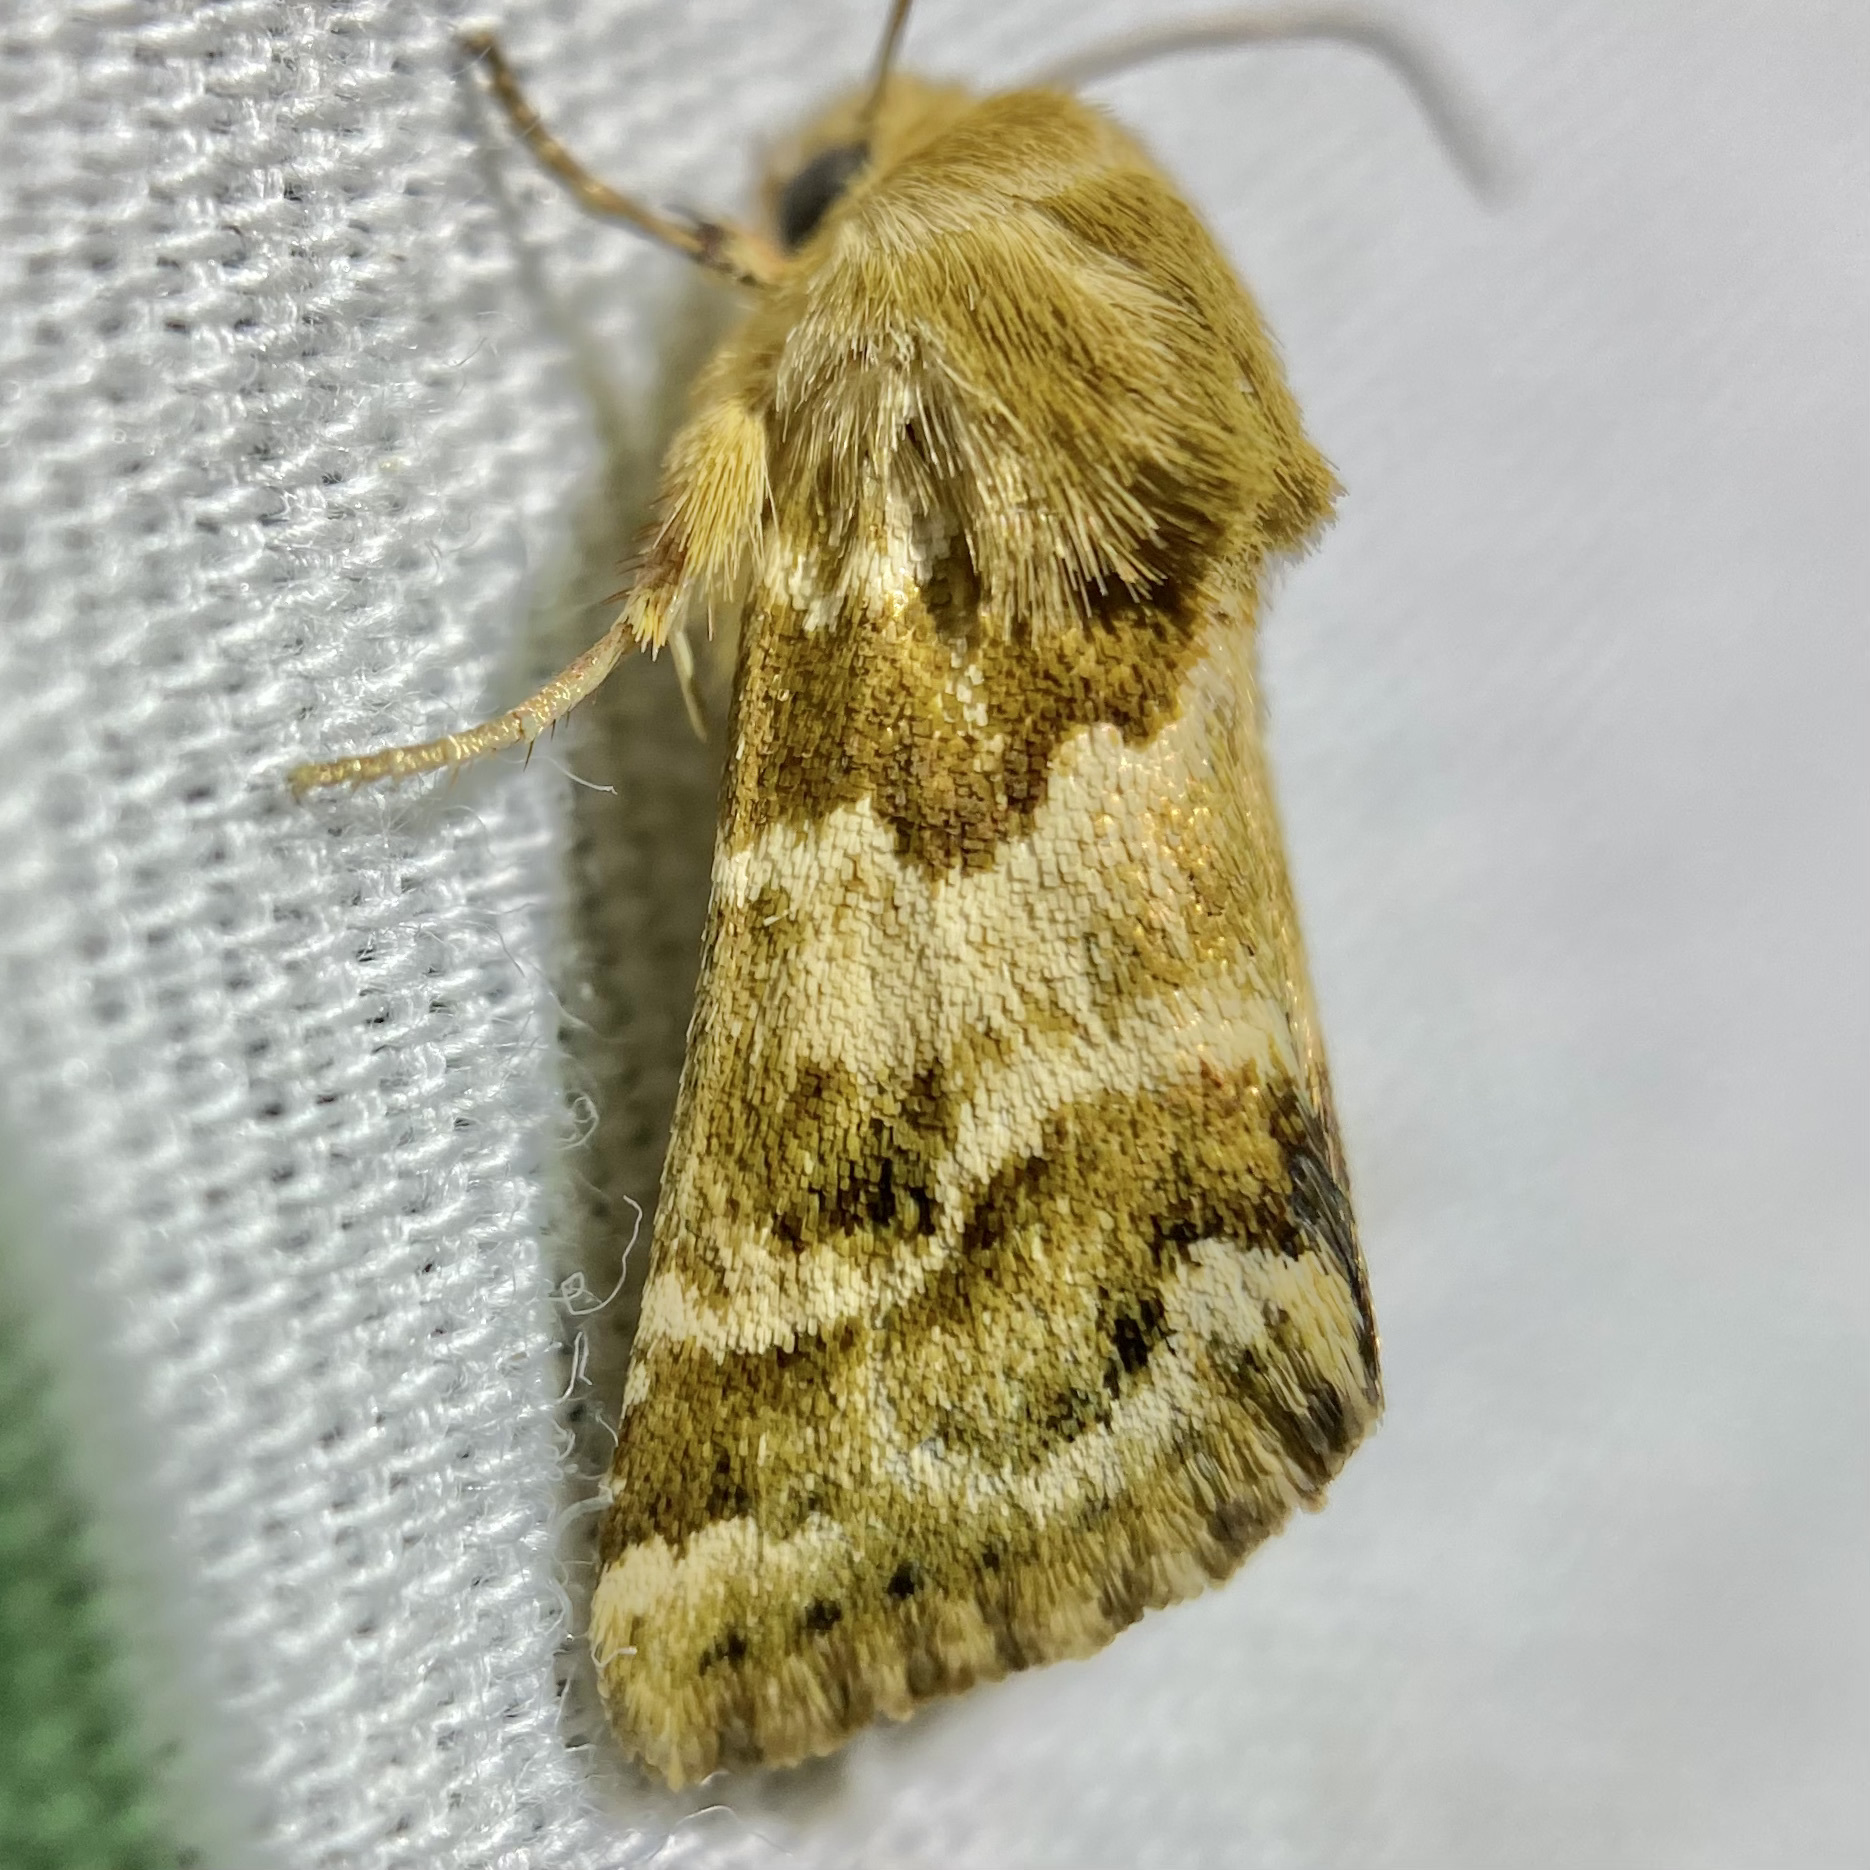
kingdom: Animalia
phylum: Arthropoda
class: Insecta
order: Lepidoptera
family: Noctuidae
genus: Schinia
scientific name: Schinia errans
